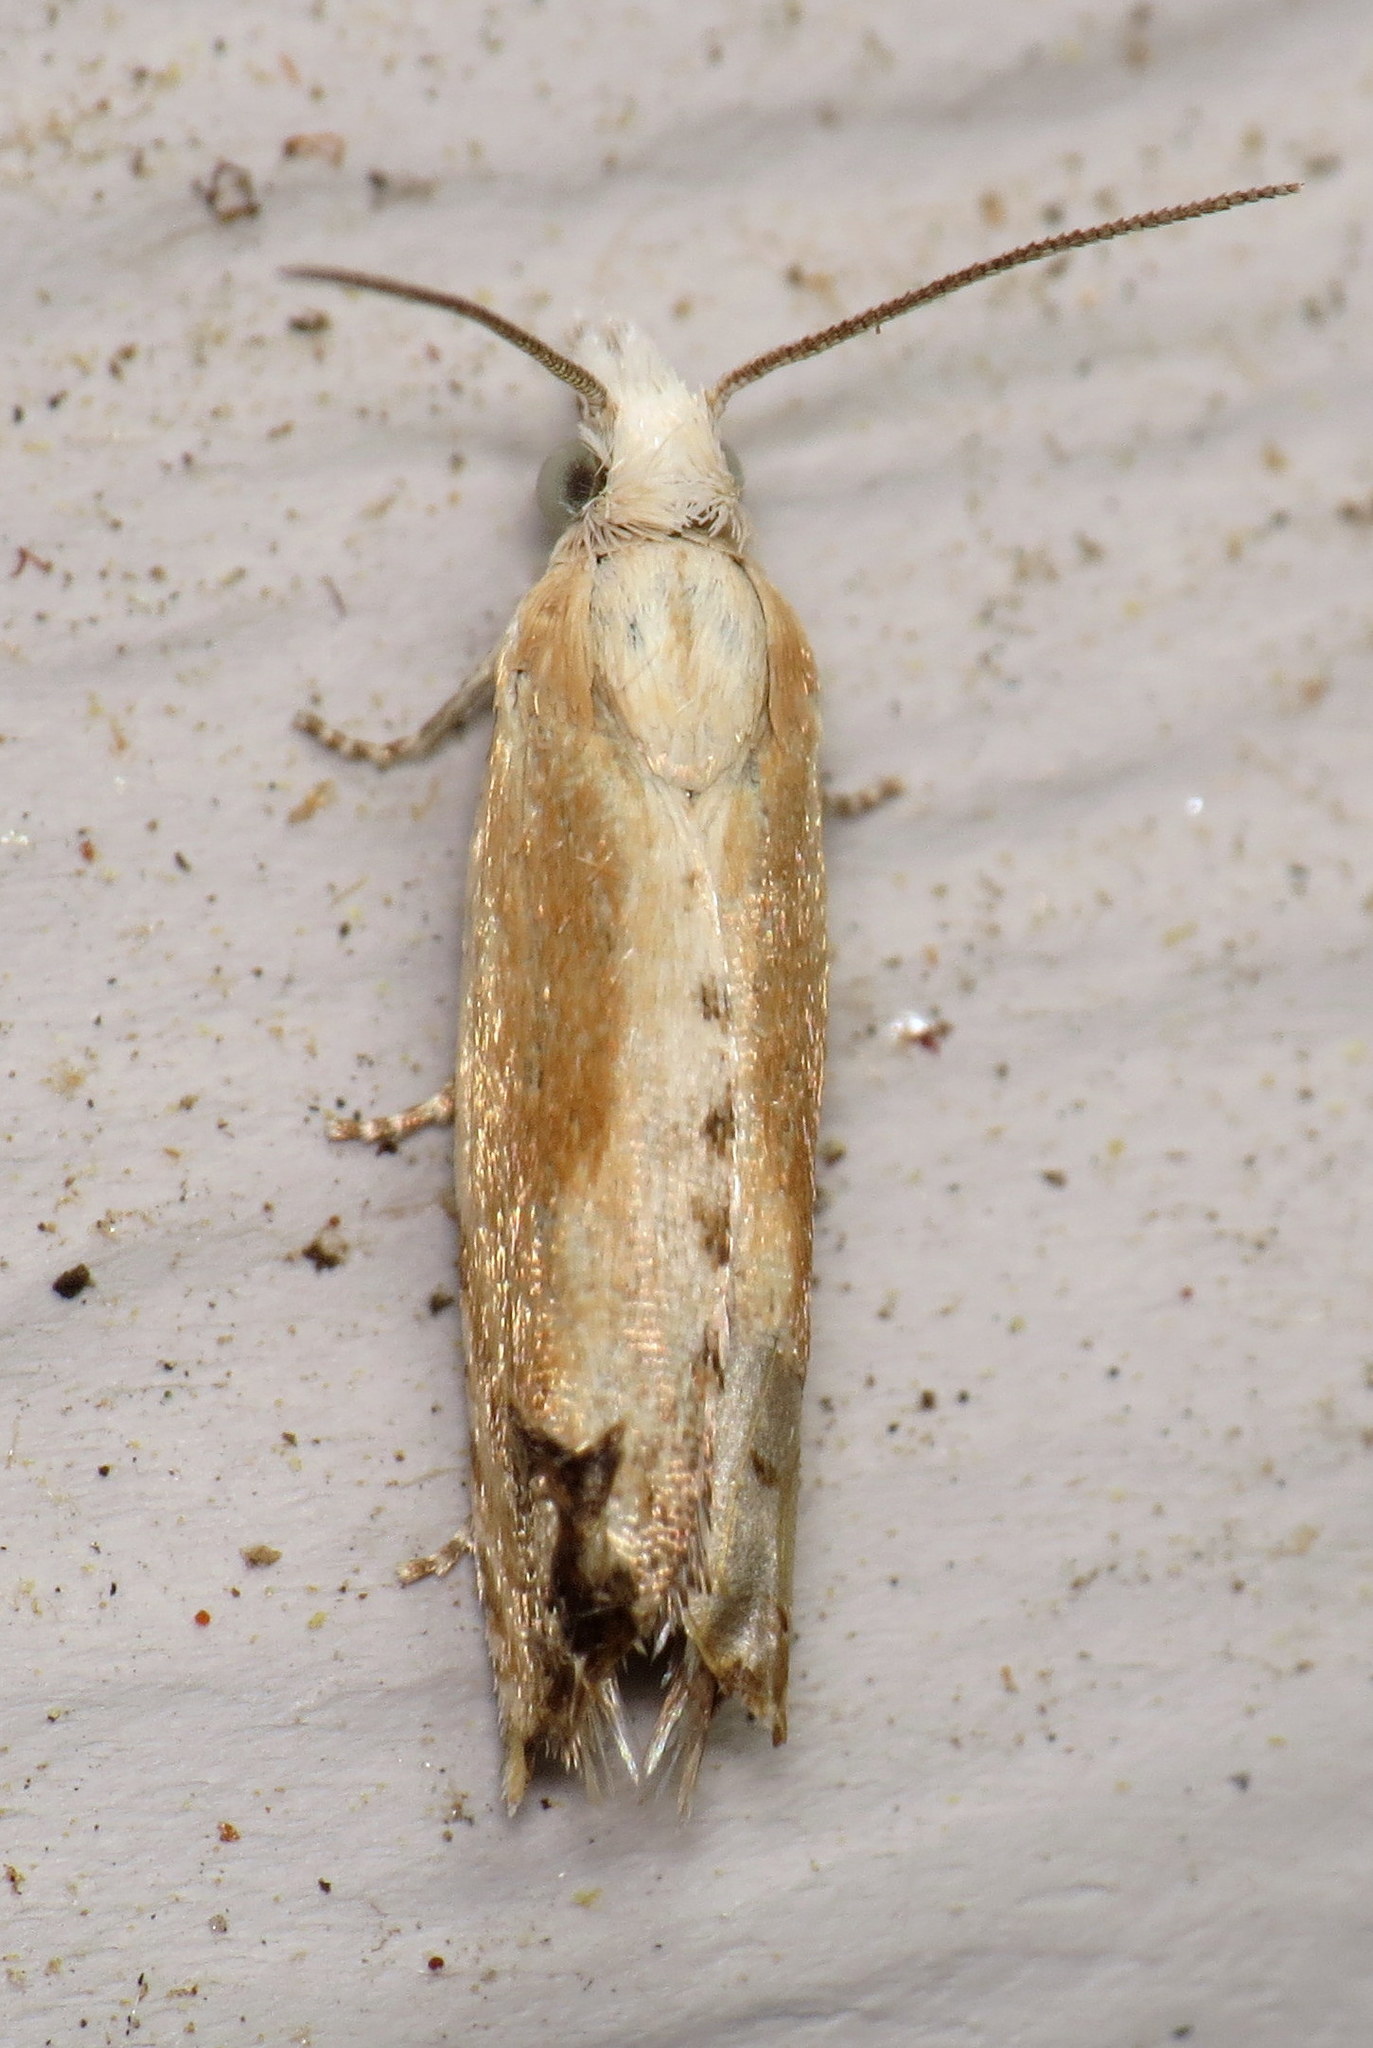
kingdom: Animalia
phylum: Arthropoda
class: Insecta
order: Lepidoptera
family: Tortricidae
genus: Eucosma
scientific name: Eucosma kiscana
